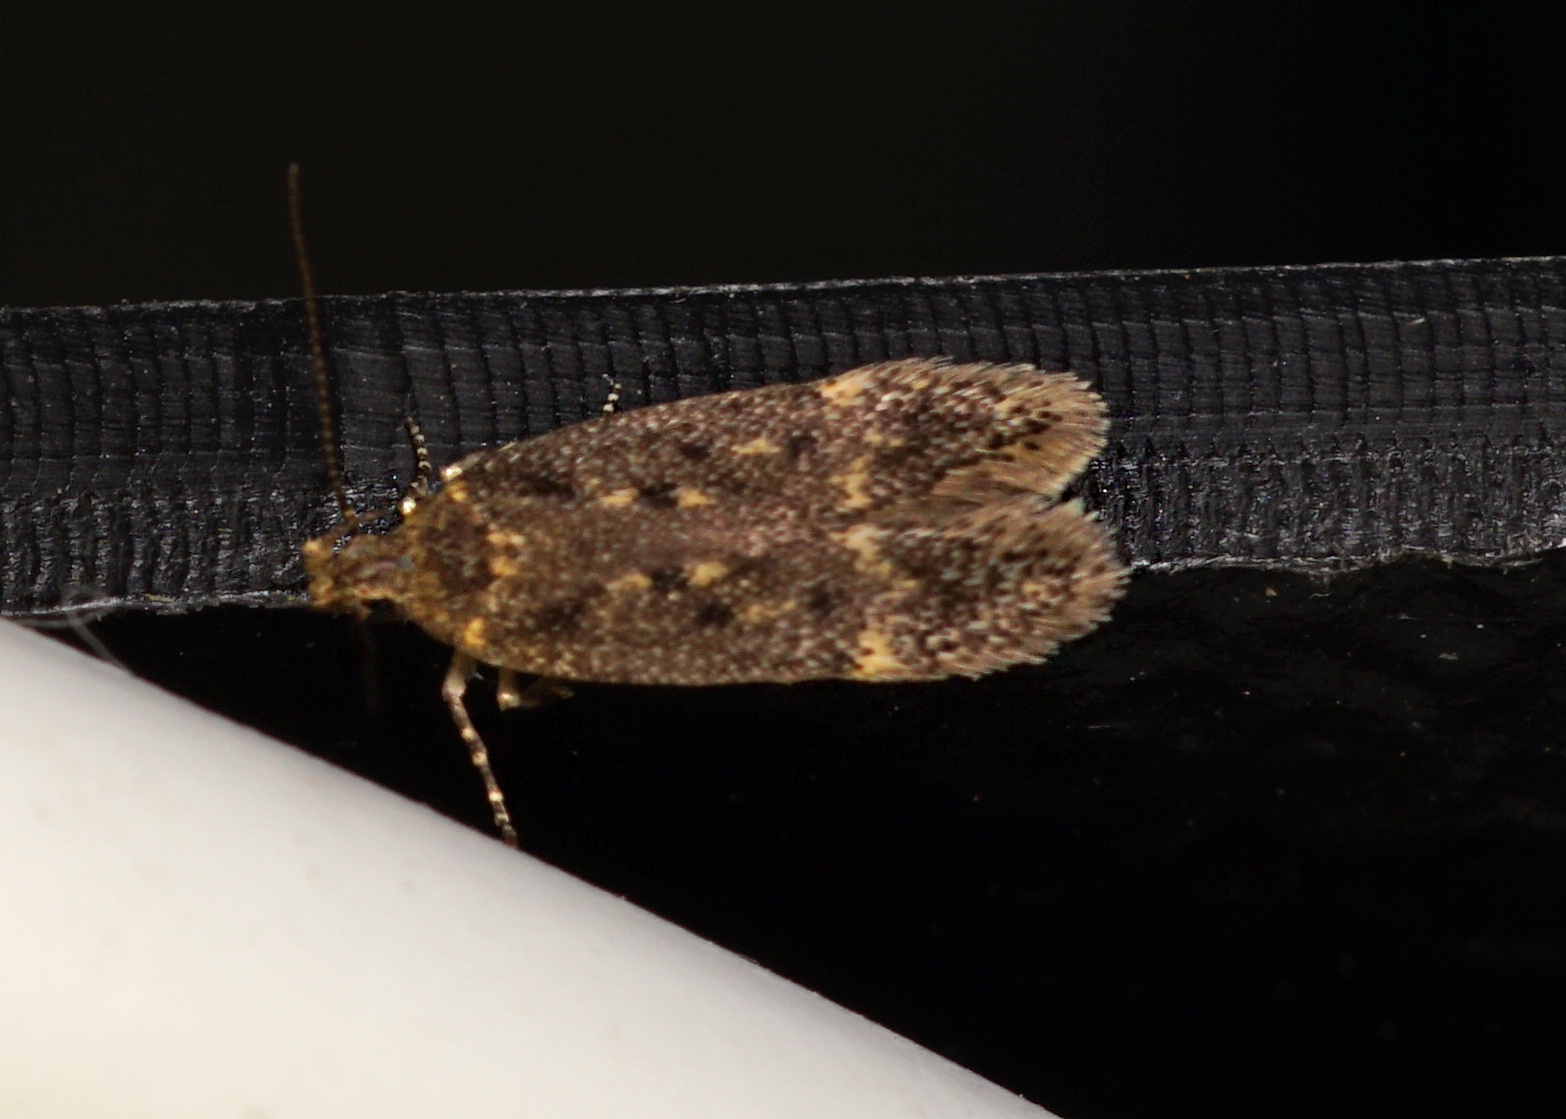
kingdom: Animalia
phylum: Arthropoda
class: Insecta
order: Lepidoptera
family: Gelechiidae
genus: Bryotropha
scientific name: Bryotropha affinis
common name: Dark groundling
